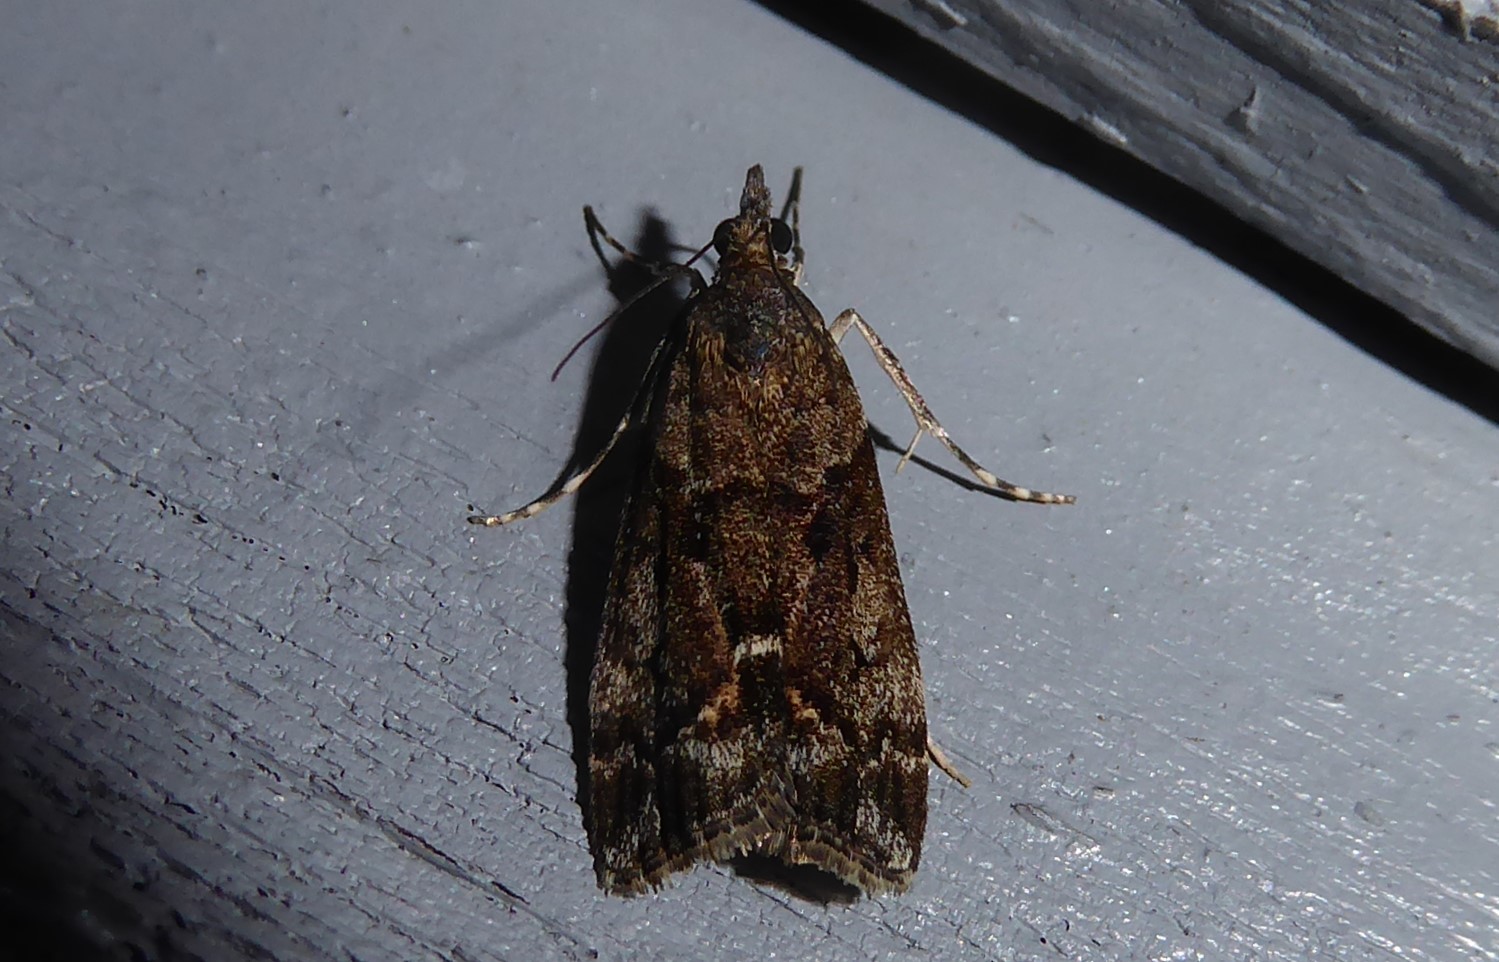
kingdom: Animalia
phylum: Arthropoda
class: Insecta
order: Lepidoptera
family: Crambidae
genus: Eudonia
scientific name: Eudonia submarginalis
